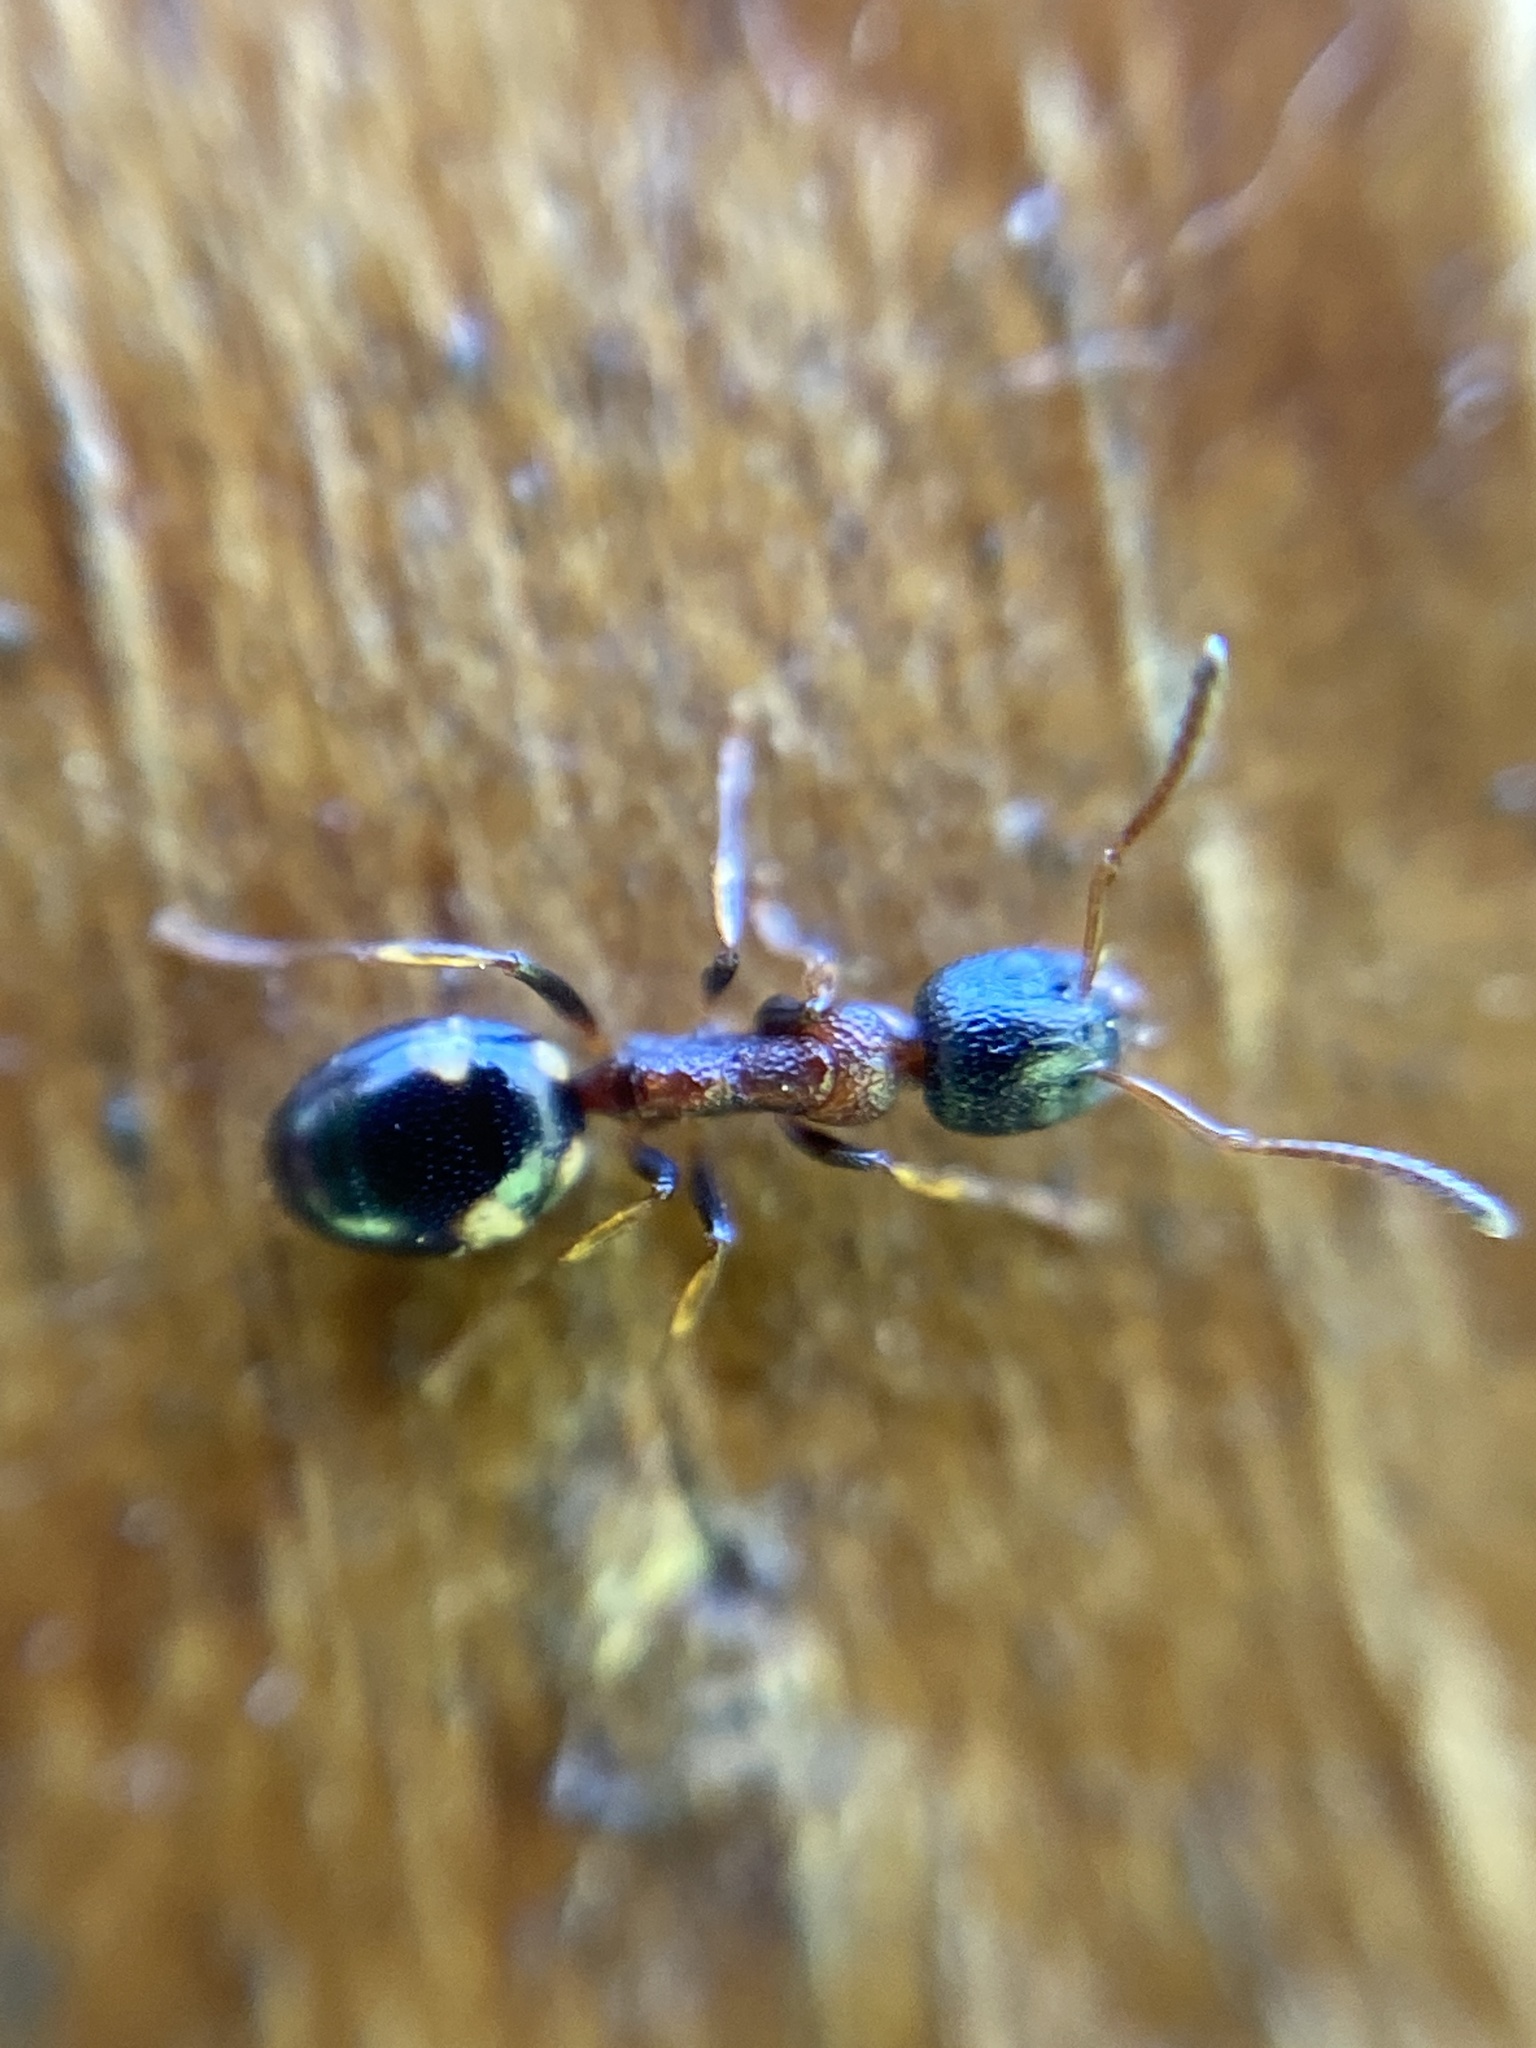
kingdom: Animalia
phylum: Arthropoda
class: Insecta
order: Hymenoptera
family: Formicidae
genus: Dolichoderus
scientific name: Dolichoderus quadripunctatus
